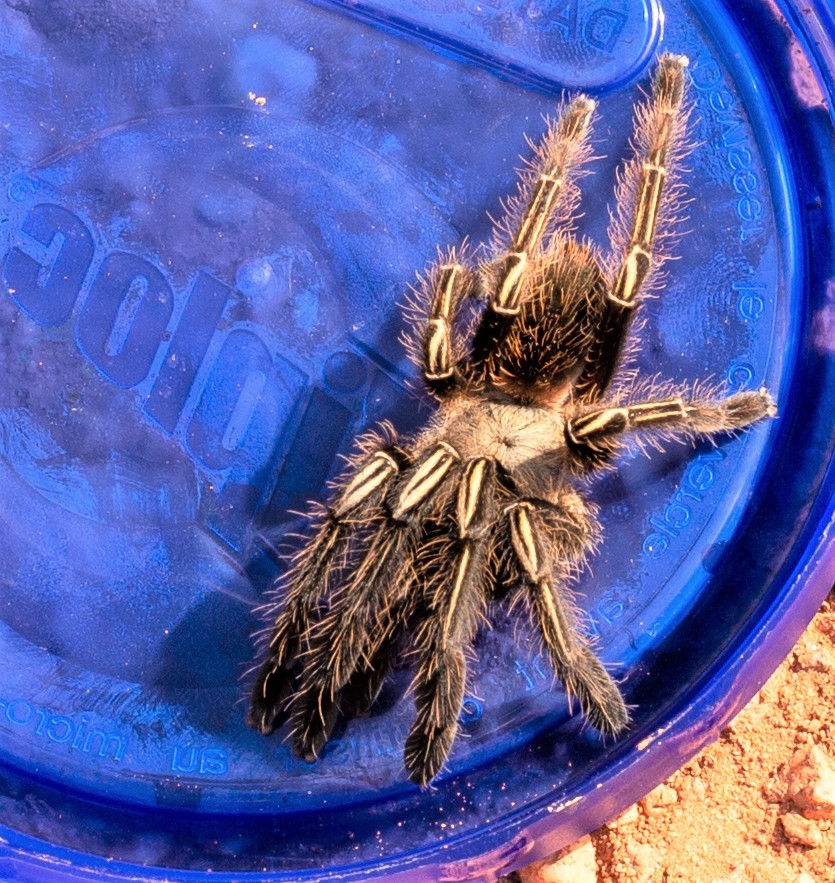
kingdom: Animalia
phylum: Arthropoda
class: Arachnida
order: Araneae
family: Theraphosidae
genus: Ephebopus
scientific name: Ephebopus murinus
